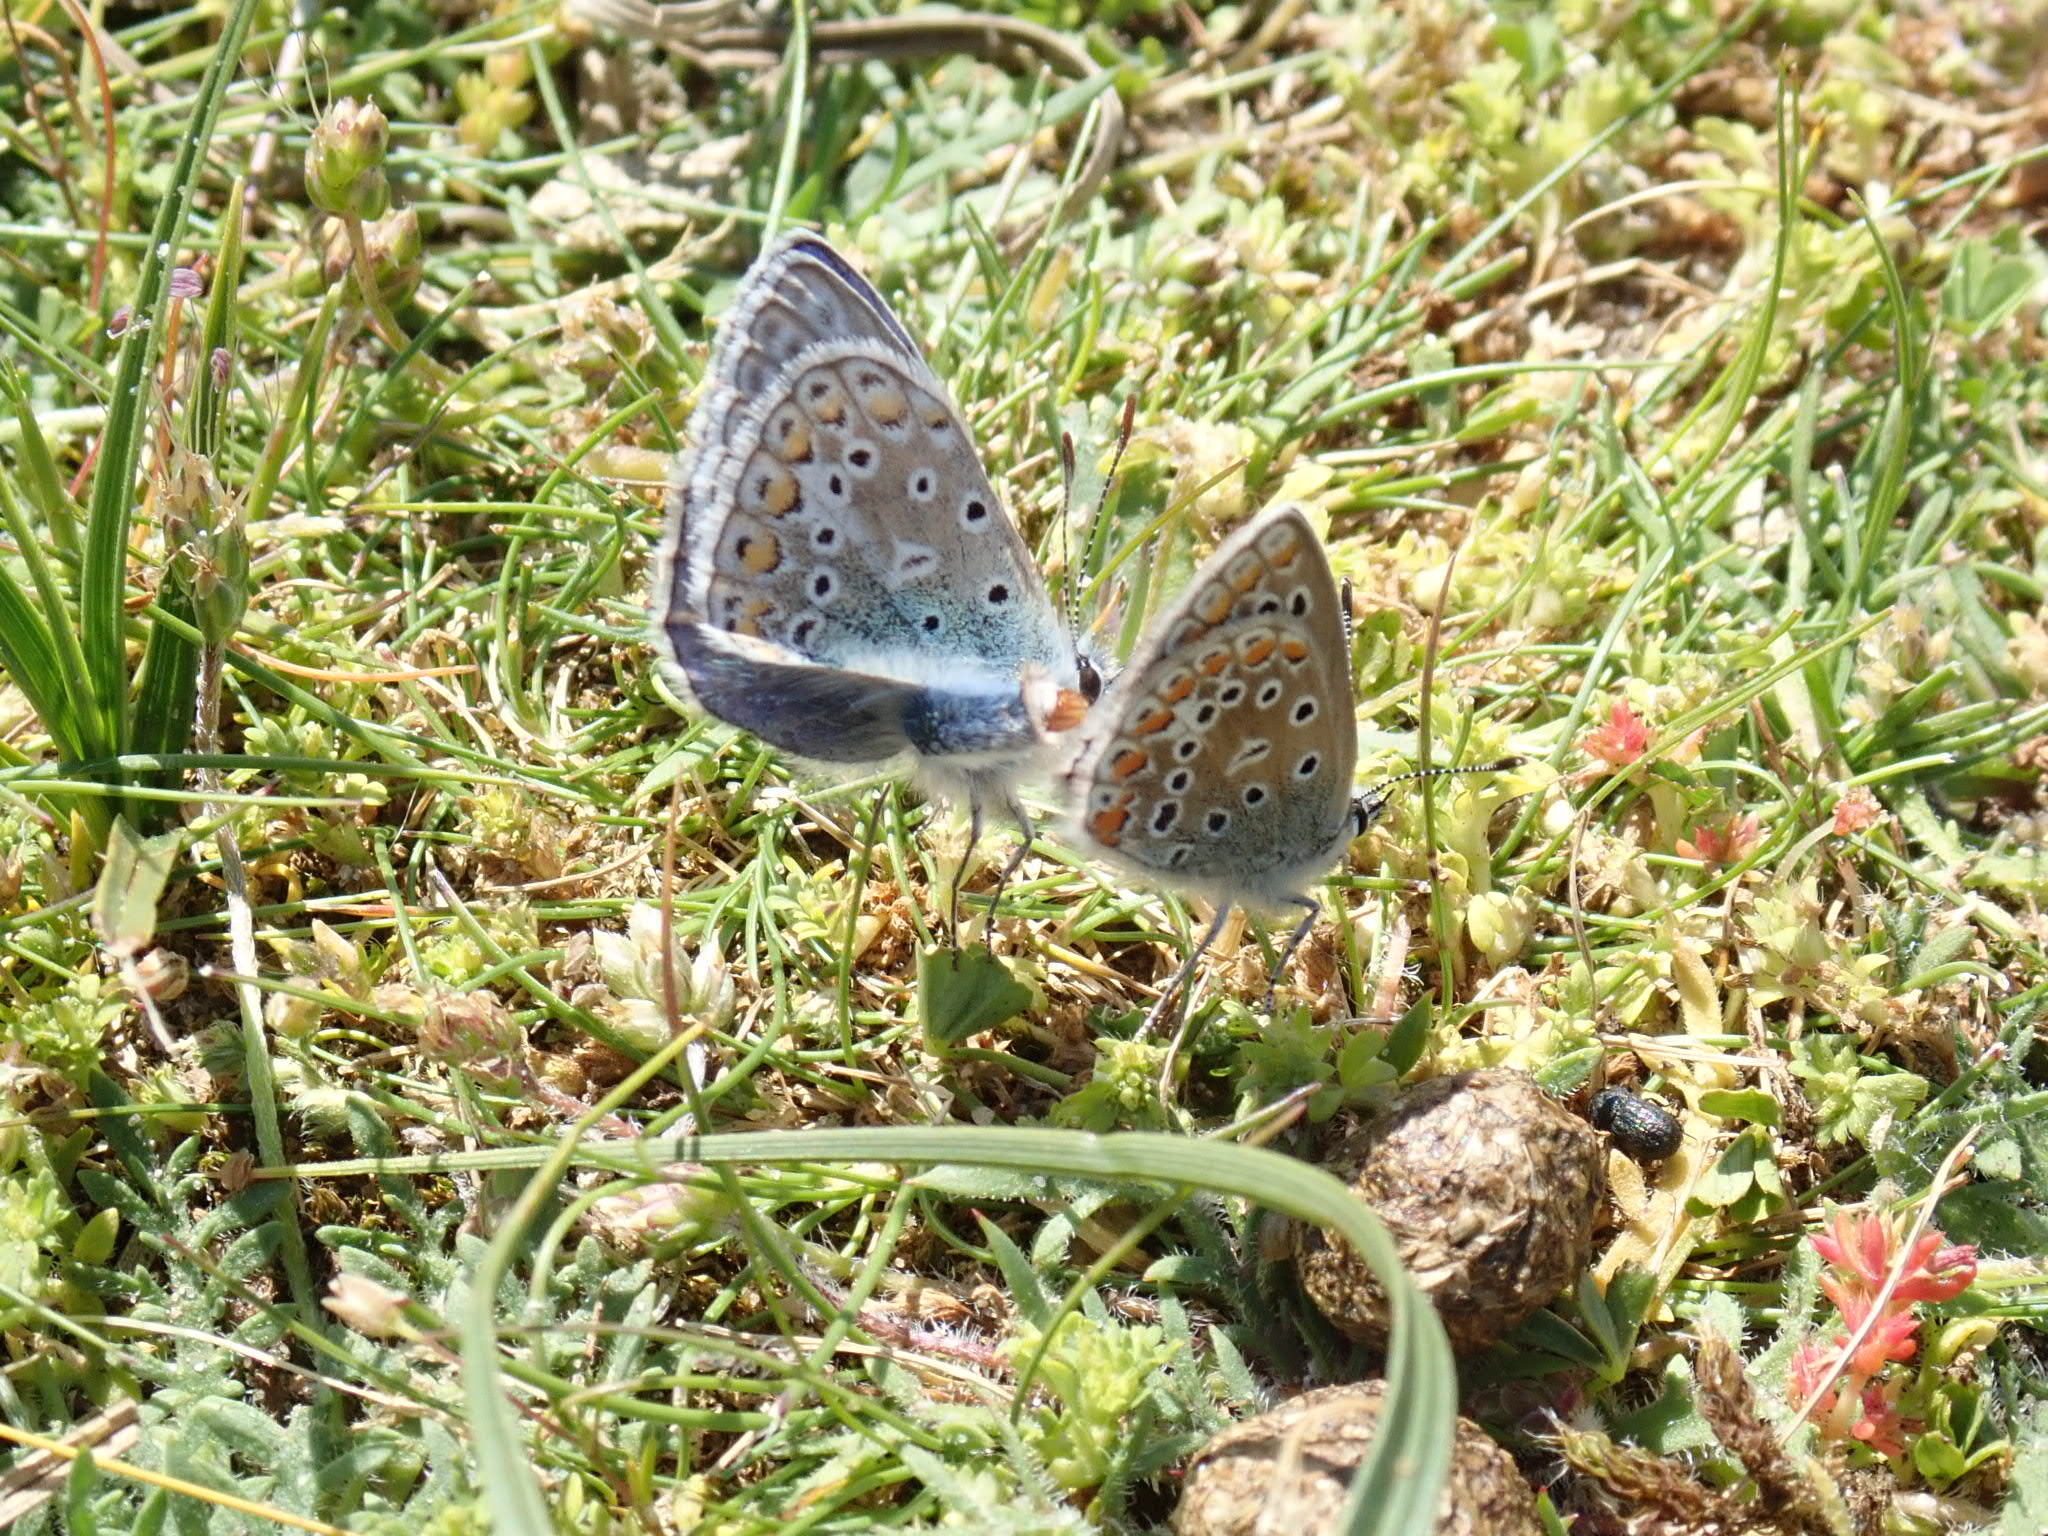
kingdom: Animalia
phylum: Arthropoda
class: Insecta
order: Lepidoptera
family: Lycaenidae
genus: Polyommatus
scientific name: Polyommatus icarus
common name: Common blue
